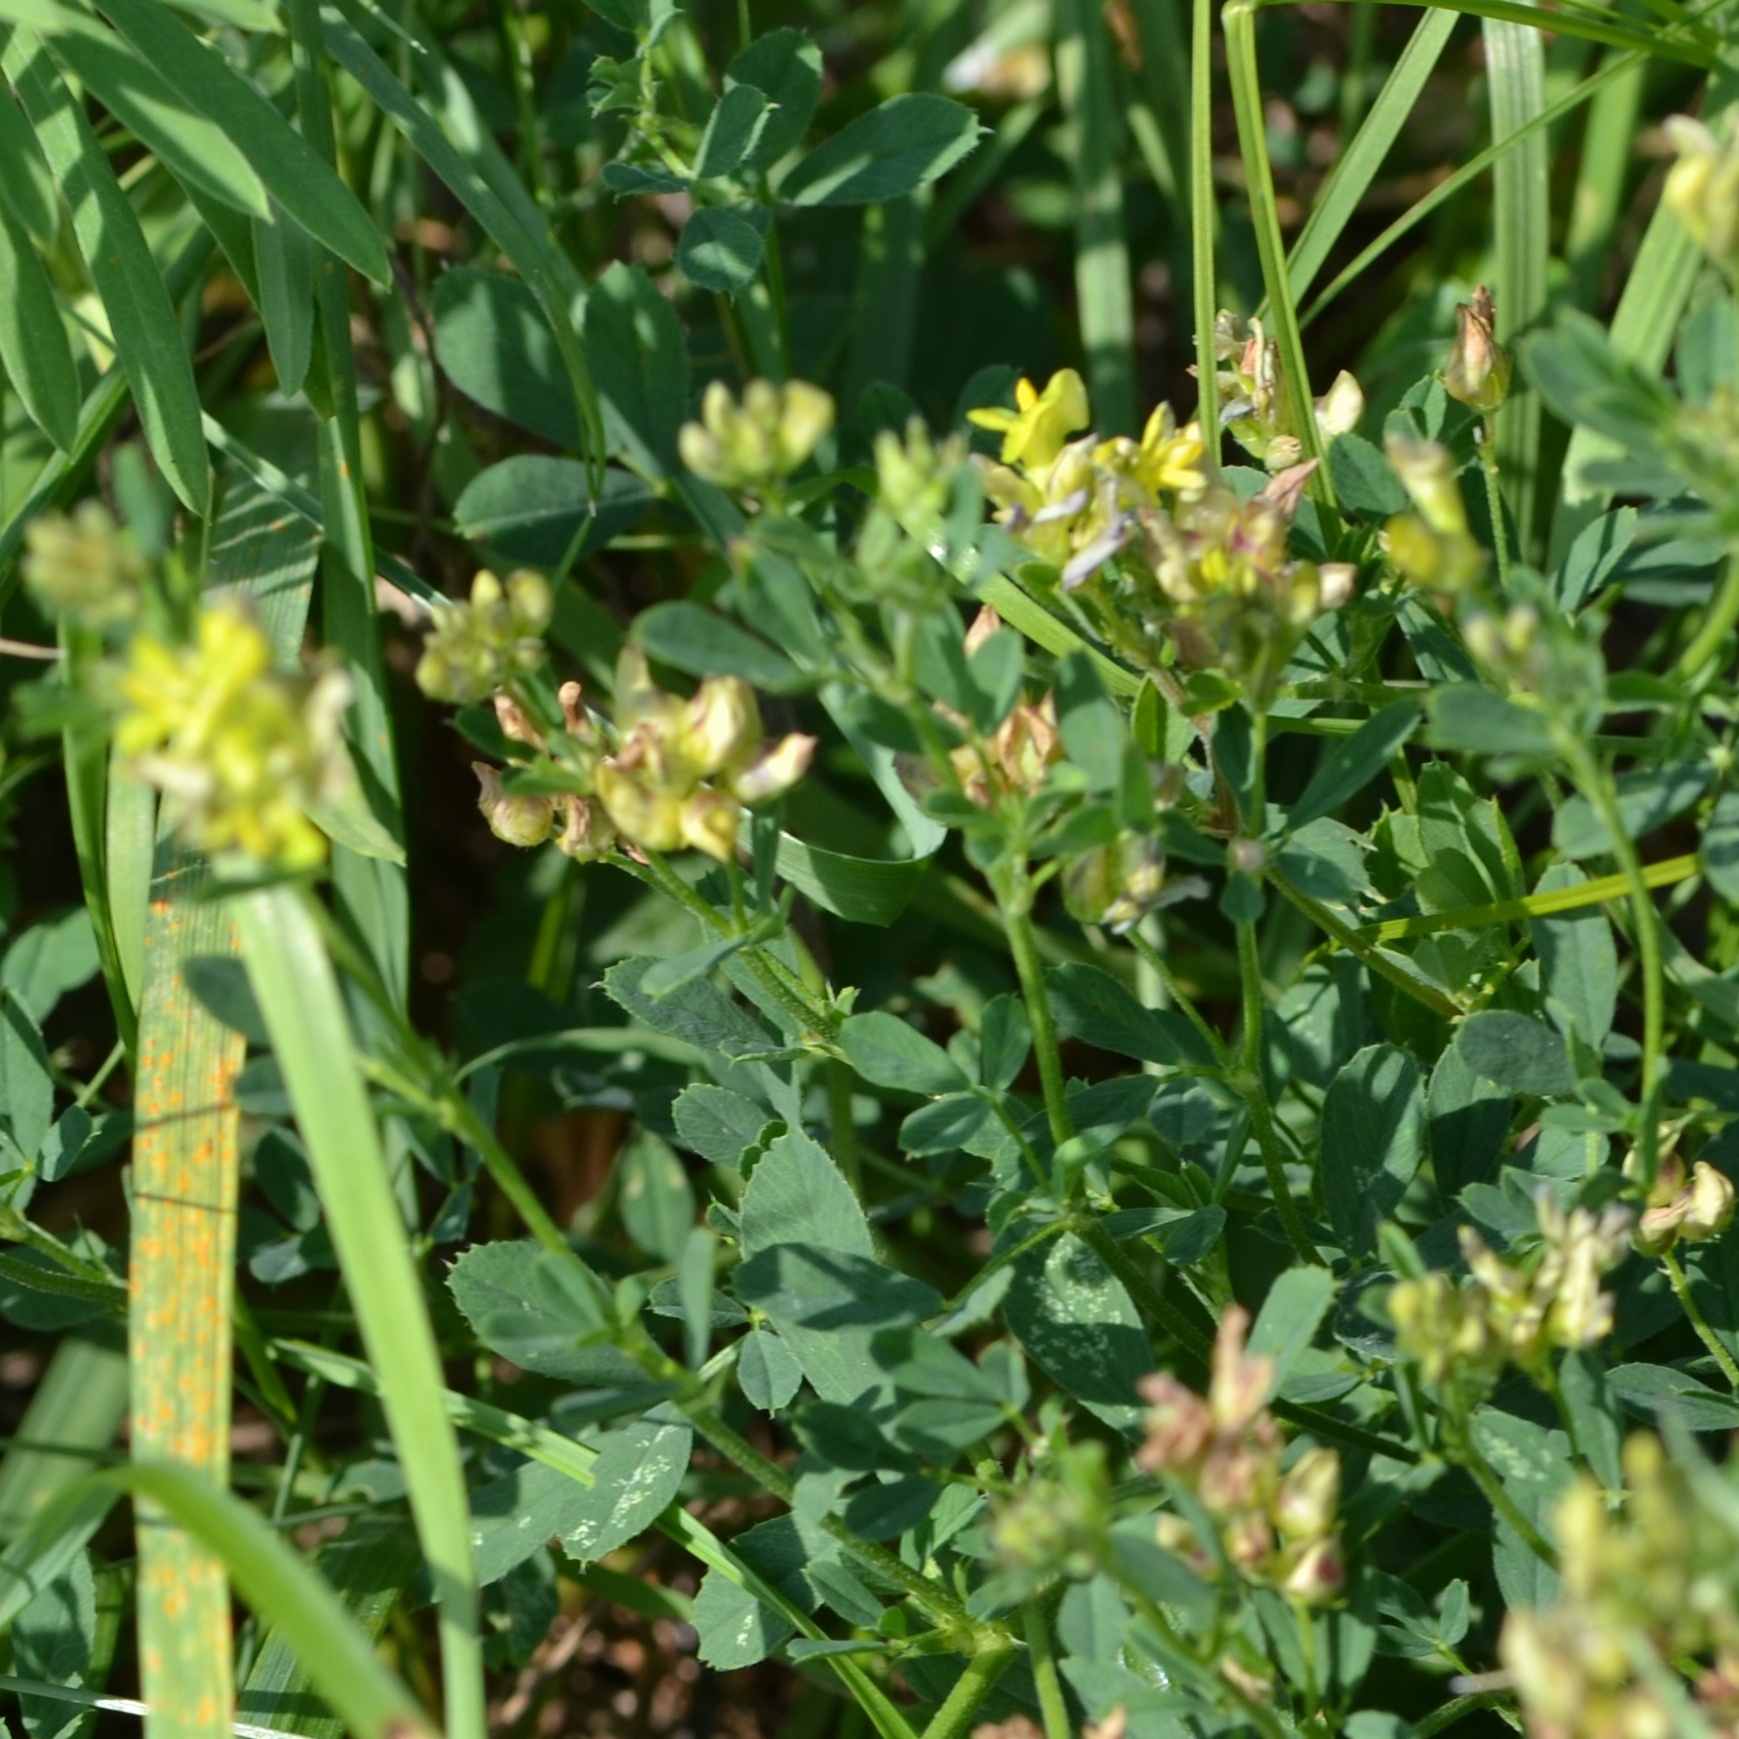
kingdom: Plantae
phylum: Tracheophyta
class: Magnoliopsida
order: Fabales
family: Fabaceae
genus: Medicago
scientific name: Medicago varia
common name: Sand lucerne
